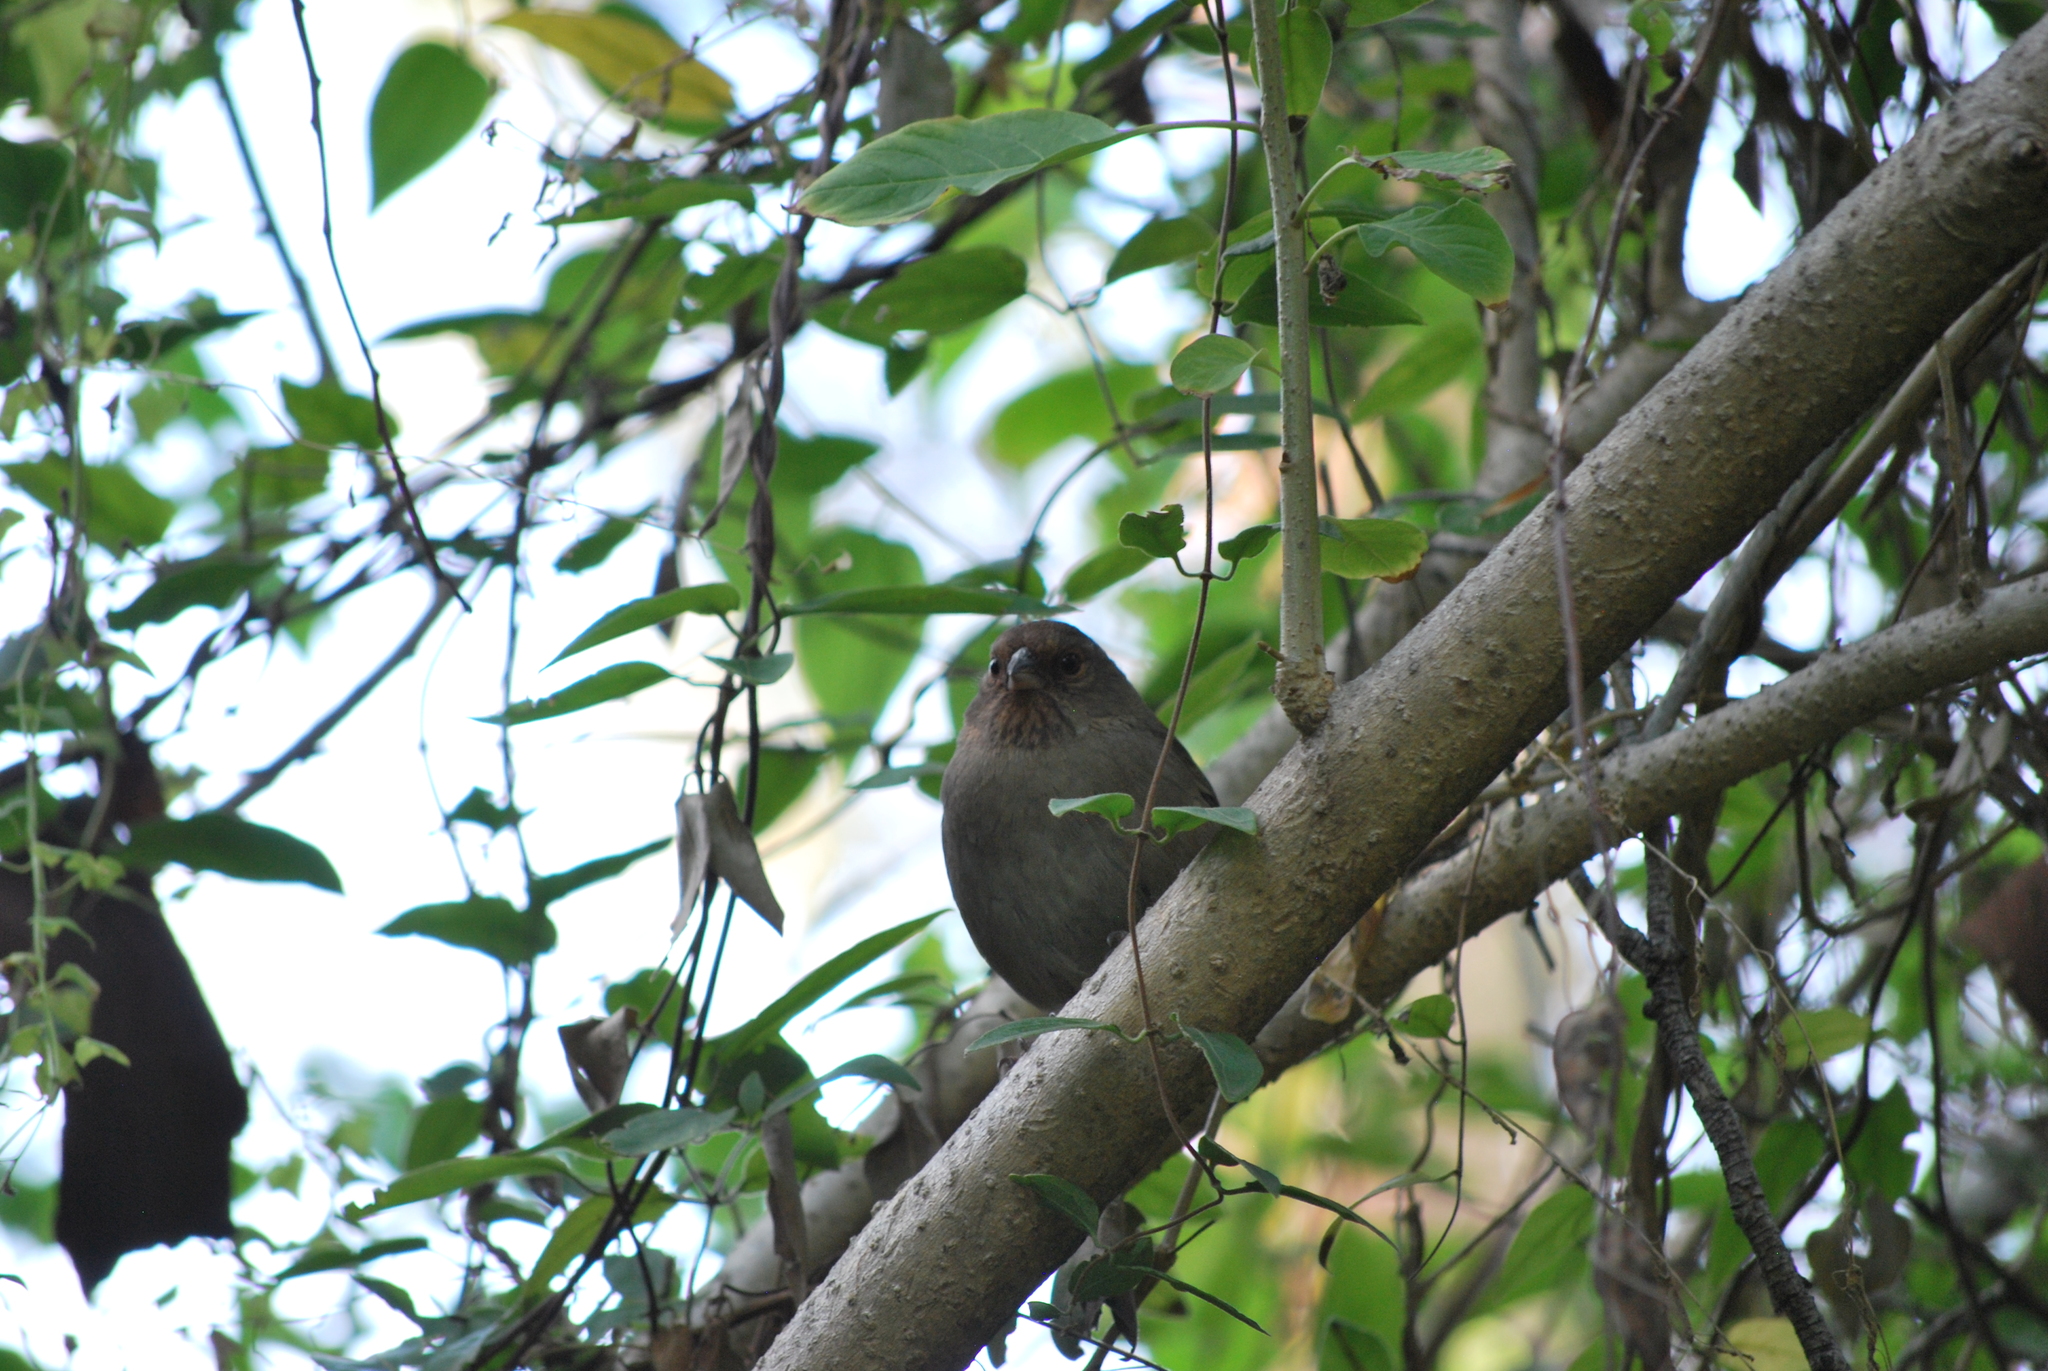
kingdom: Animalia
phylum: Chordata
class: Aves
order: Passeriformes
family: Passerellidae
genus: Melozone
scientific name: Melozone crissalis
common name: California towhee
